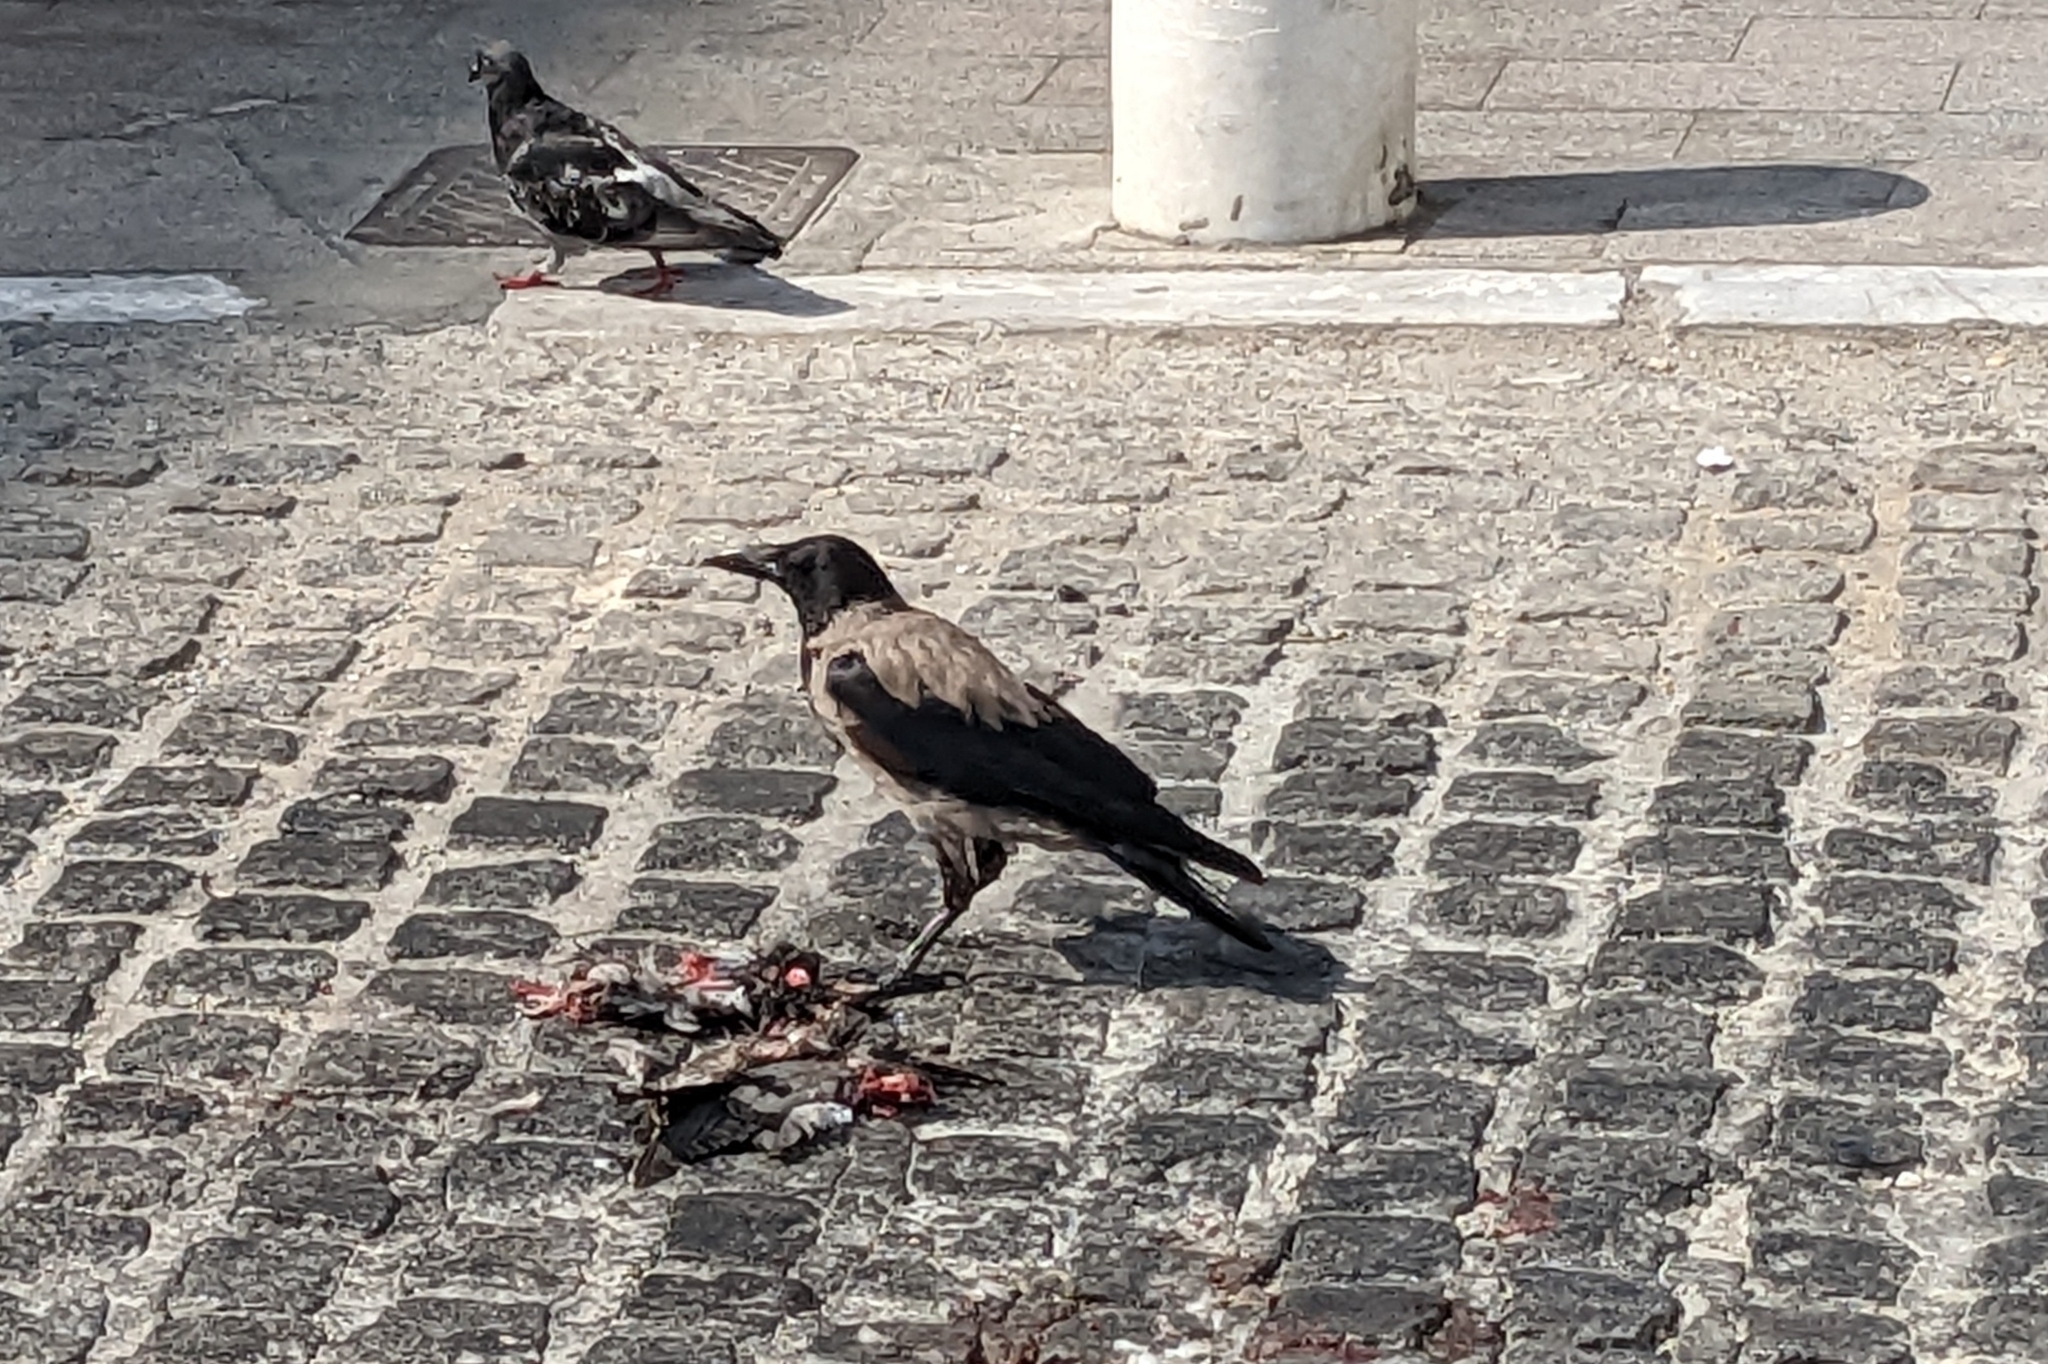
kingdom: Animalia
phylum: Chordata
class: Aves
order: Columbiformes
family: Columbidae
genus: Columba
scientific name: Columba livia
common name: Rock pigeon
